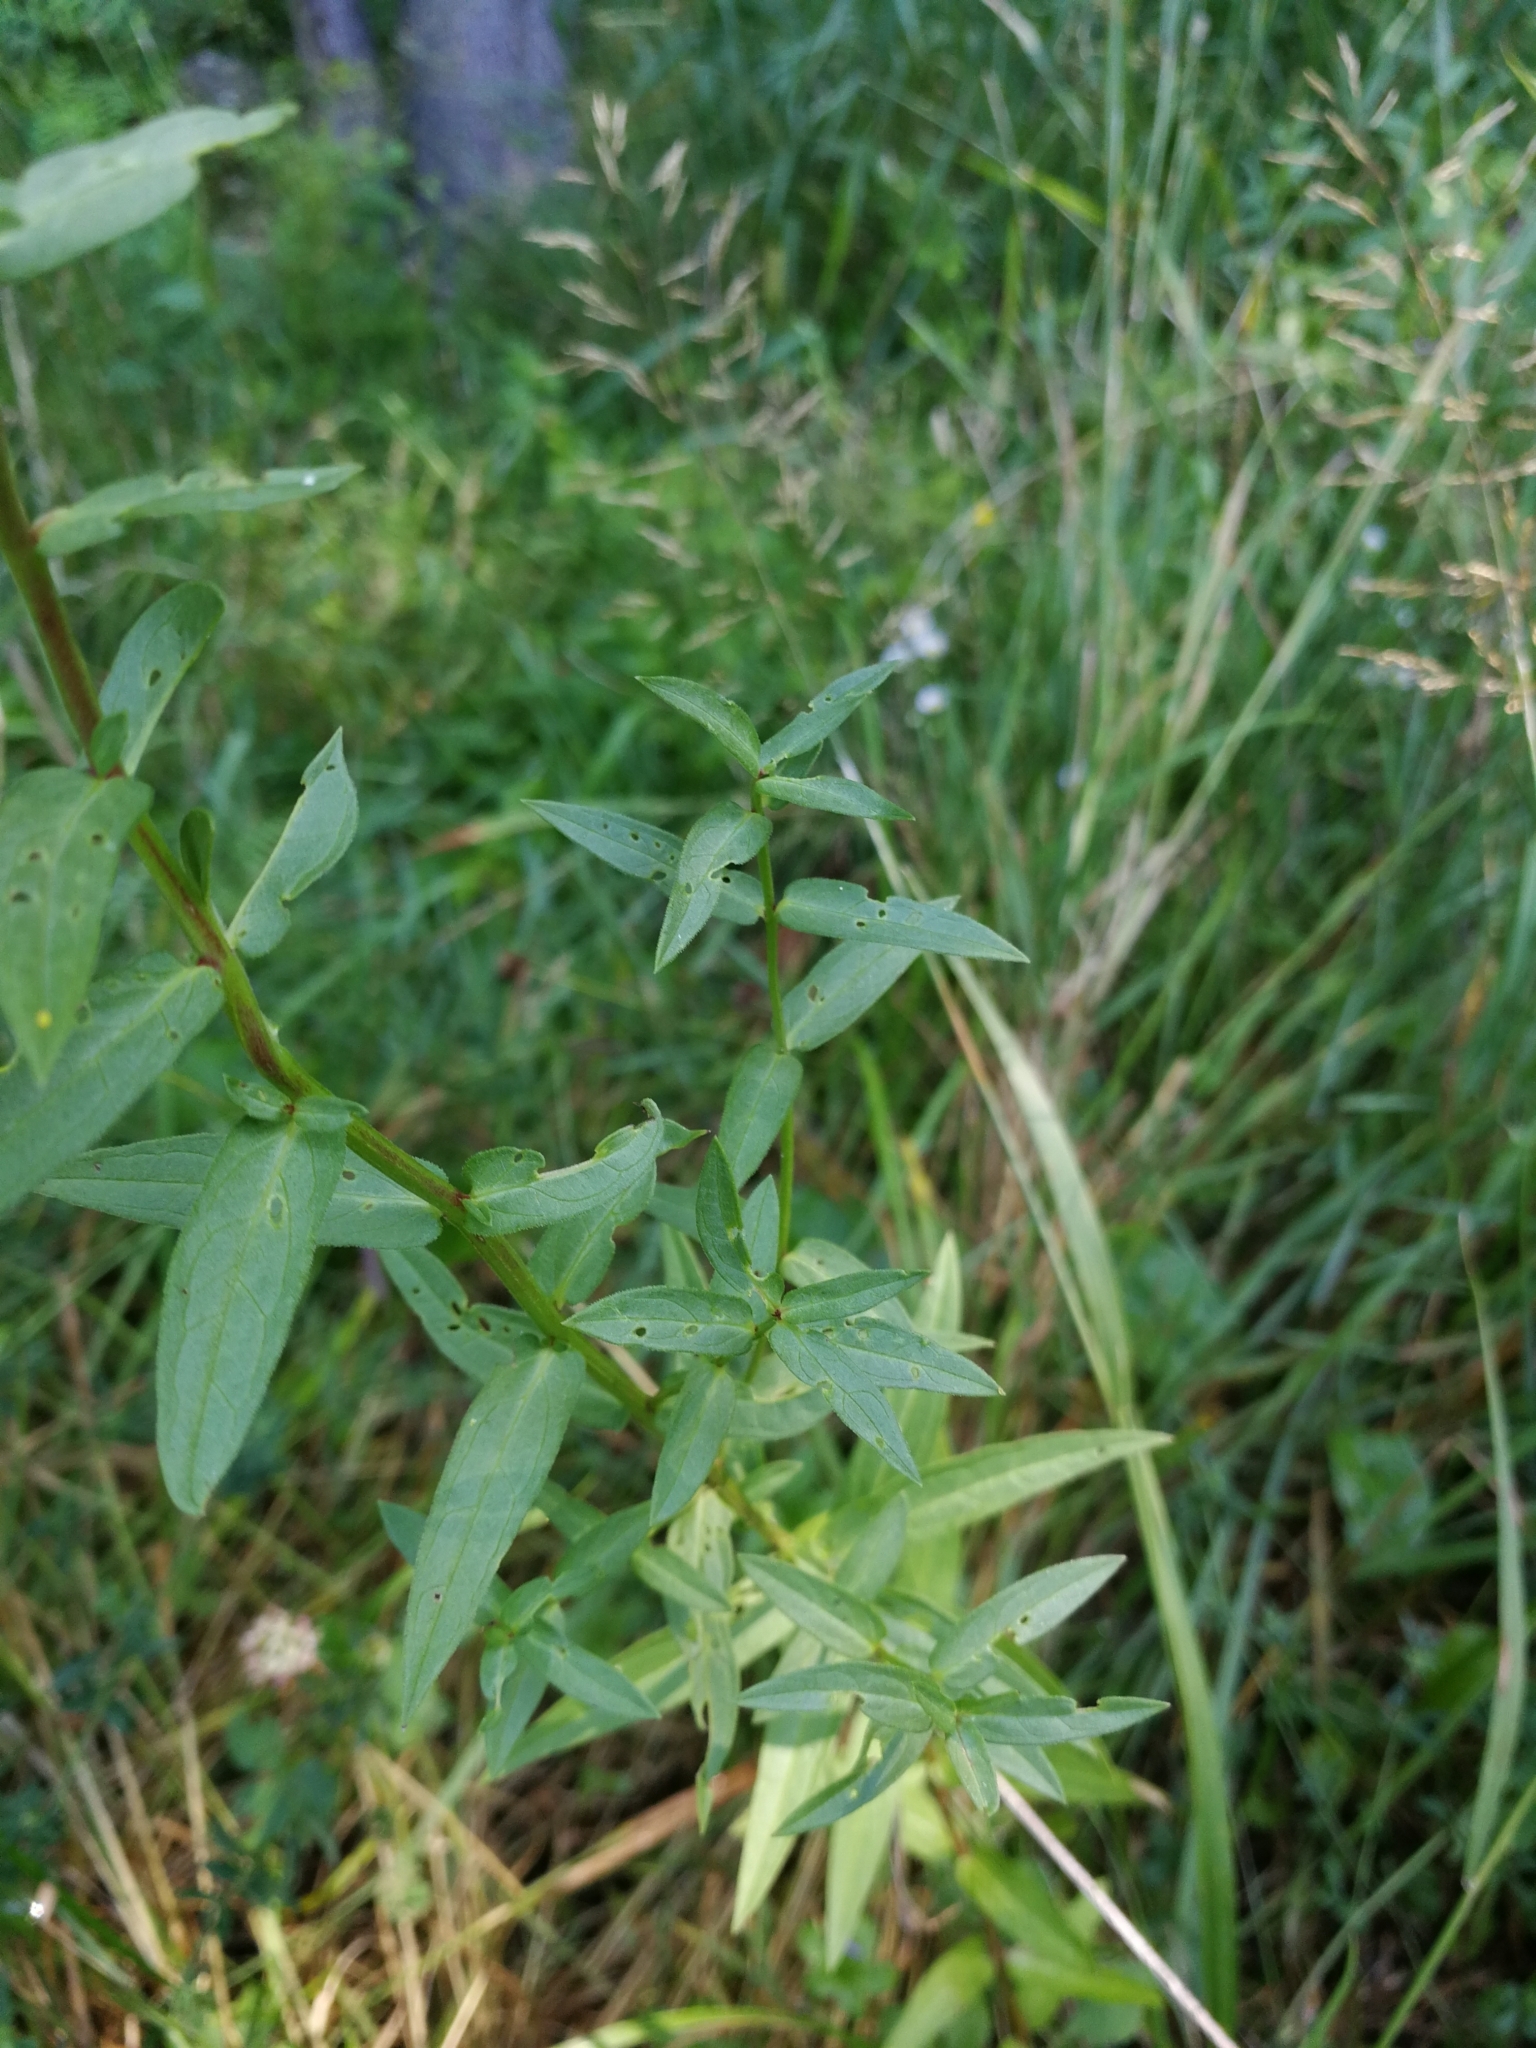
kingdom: Plantae
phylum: Tracheophyta
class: Magnoliopsida
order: Myrtales
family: Lythraceae
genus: Lythrum
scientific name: Lythrum salicaria
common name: Purple loosestrife
